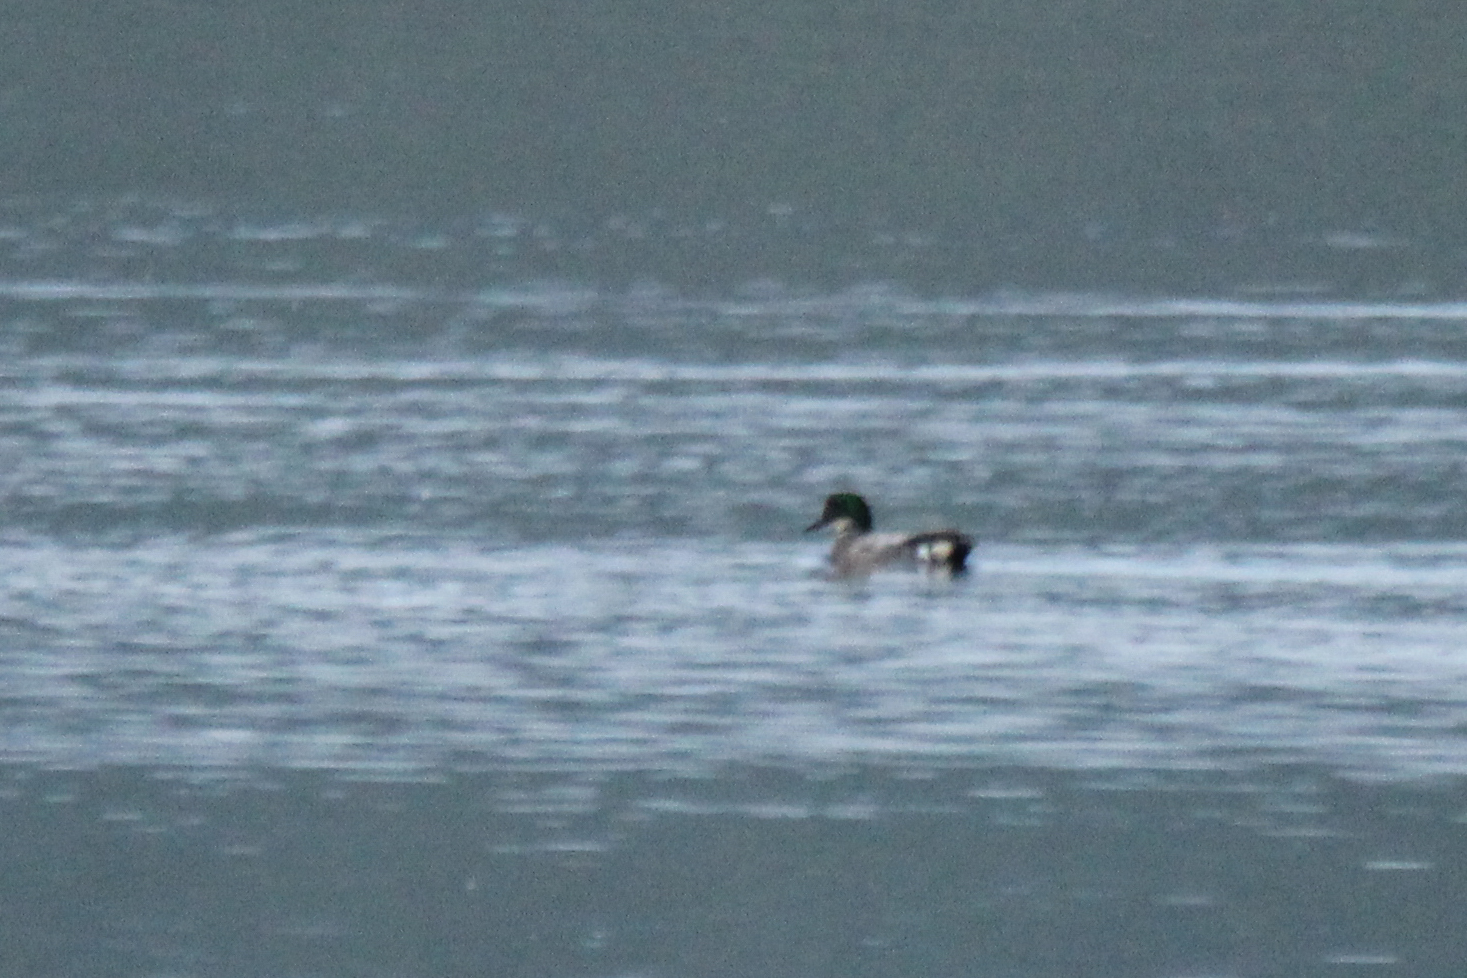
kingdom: Animalia
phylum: Chordata
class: Aves
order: Anseriformes
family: Anatidae
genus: Mareca
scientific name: Mareca falcata
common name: Falcated duck
